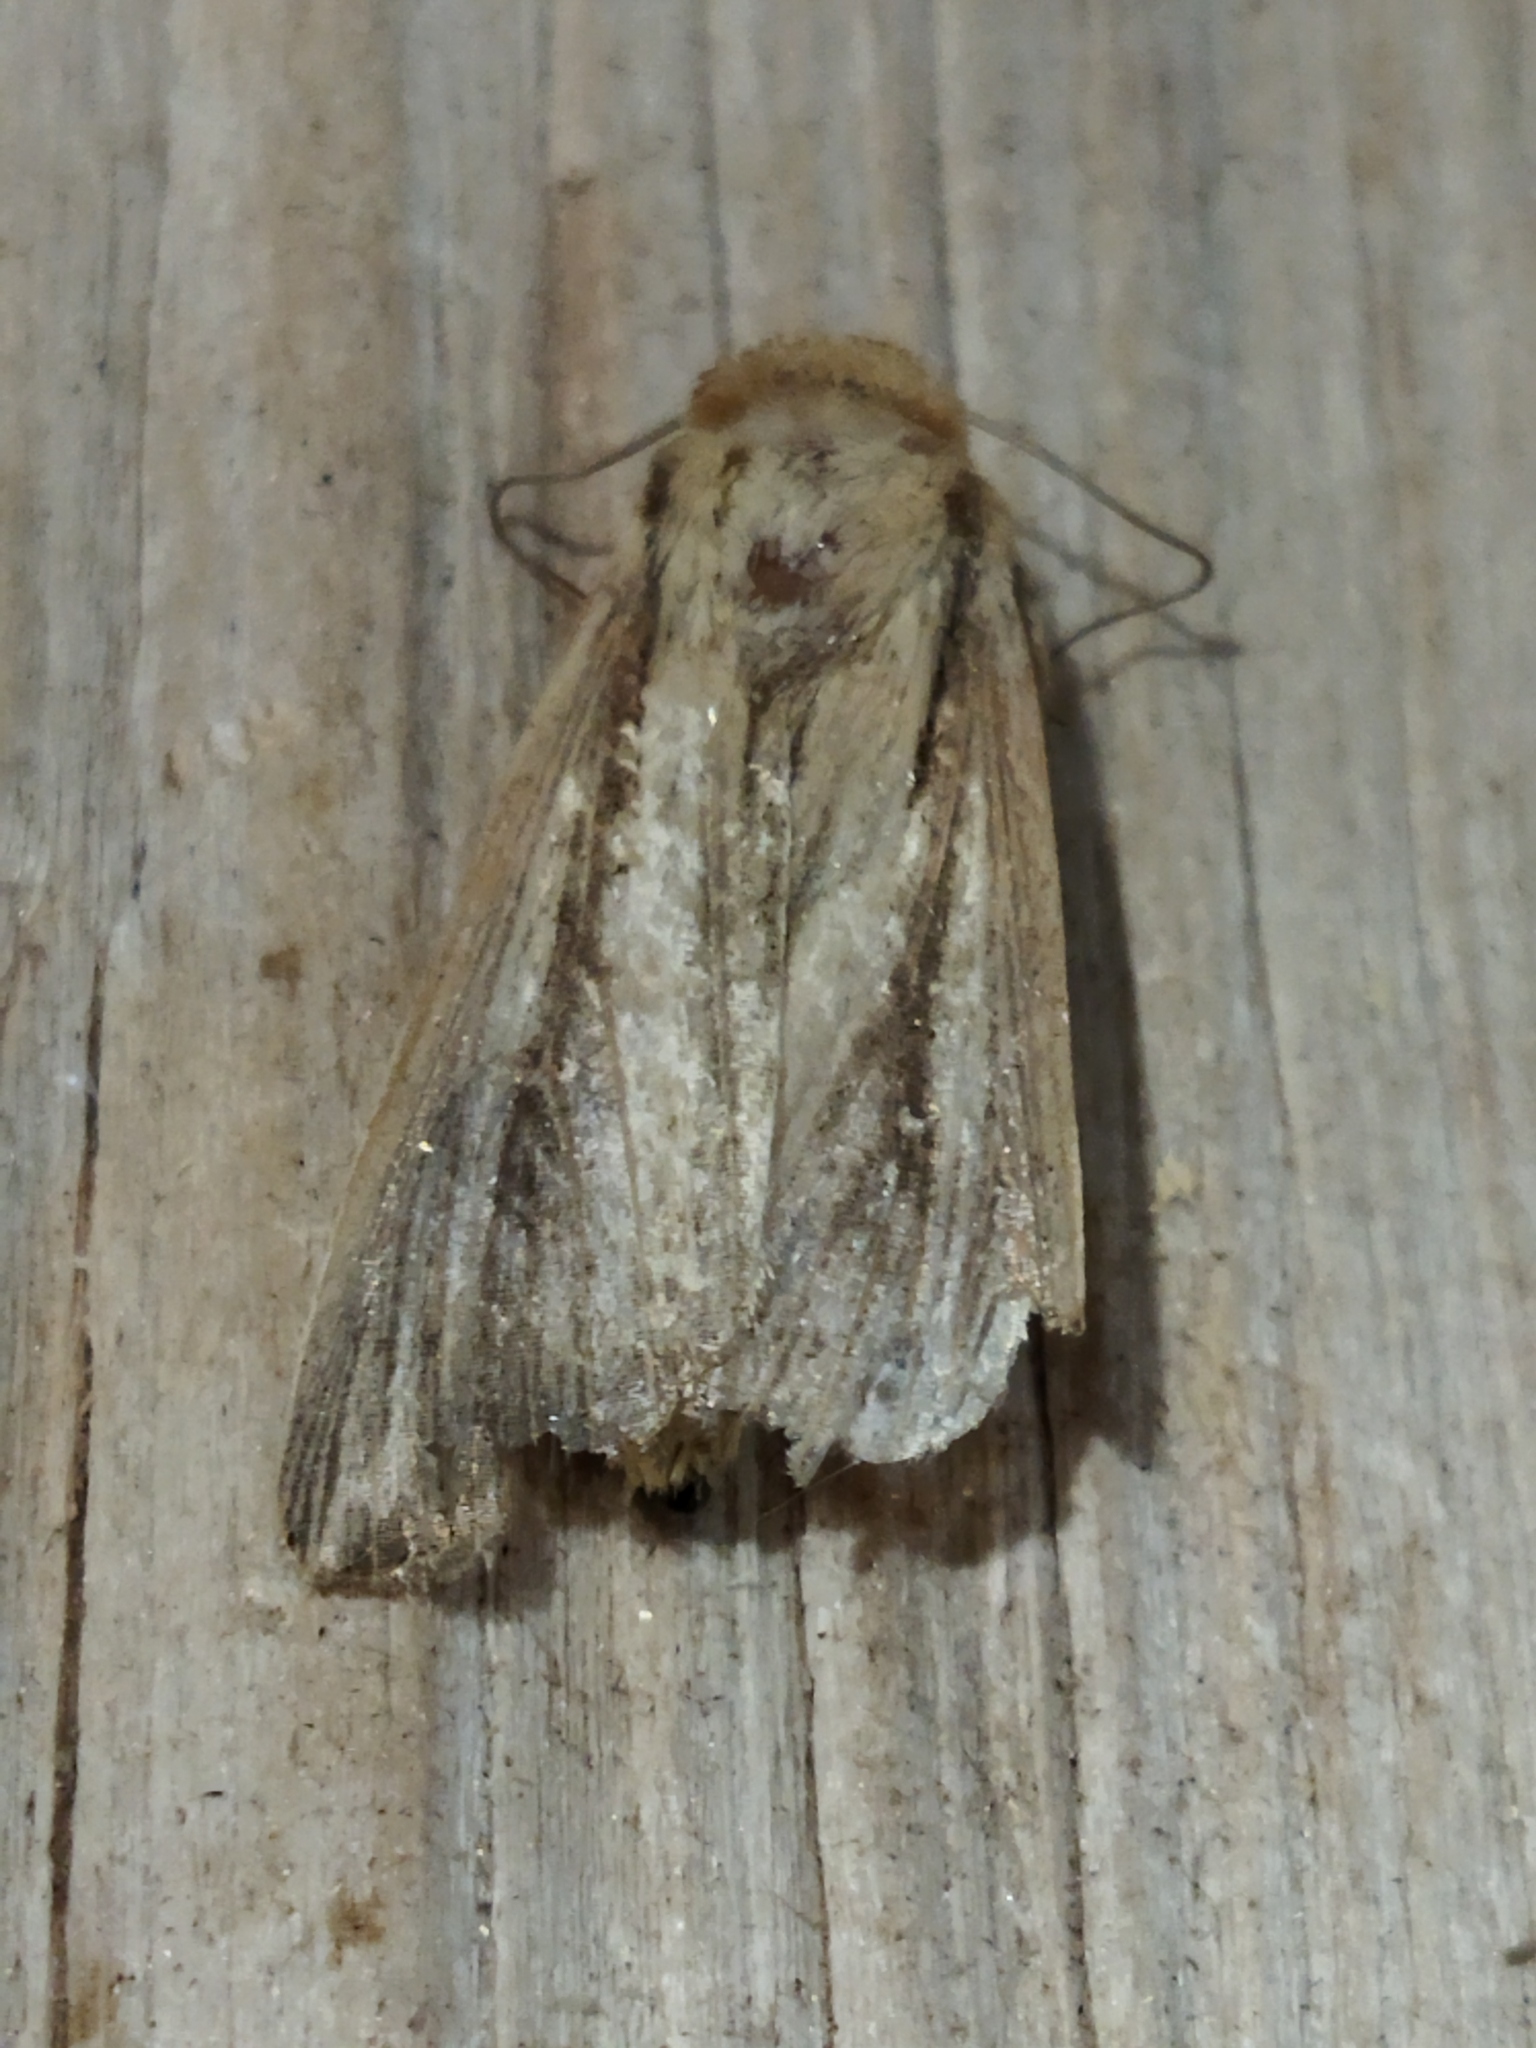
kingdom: Animalia
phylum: Arthropoda
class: Insecta
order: Lepidoptera
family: Noctuidae
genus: Leucania
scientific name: Leucania loreyi
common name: The cosmopolitan
